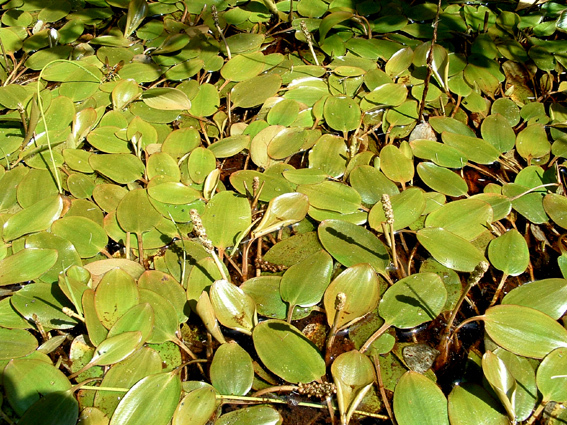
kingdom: Plantae
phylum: Tracheophyta
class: Liliopsida
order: Alismatales
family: Potamogetonaceae
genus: Potamogeton
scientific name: Potamogeton cheesemanii
